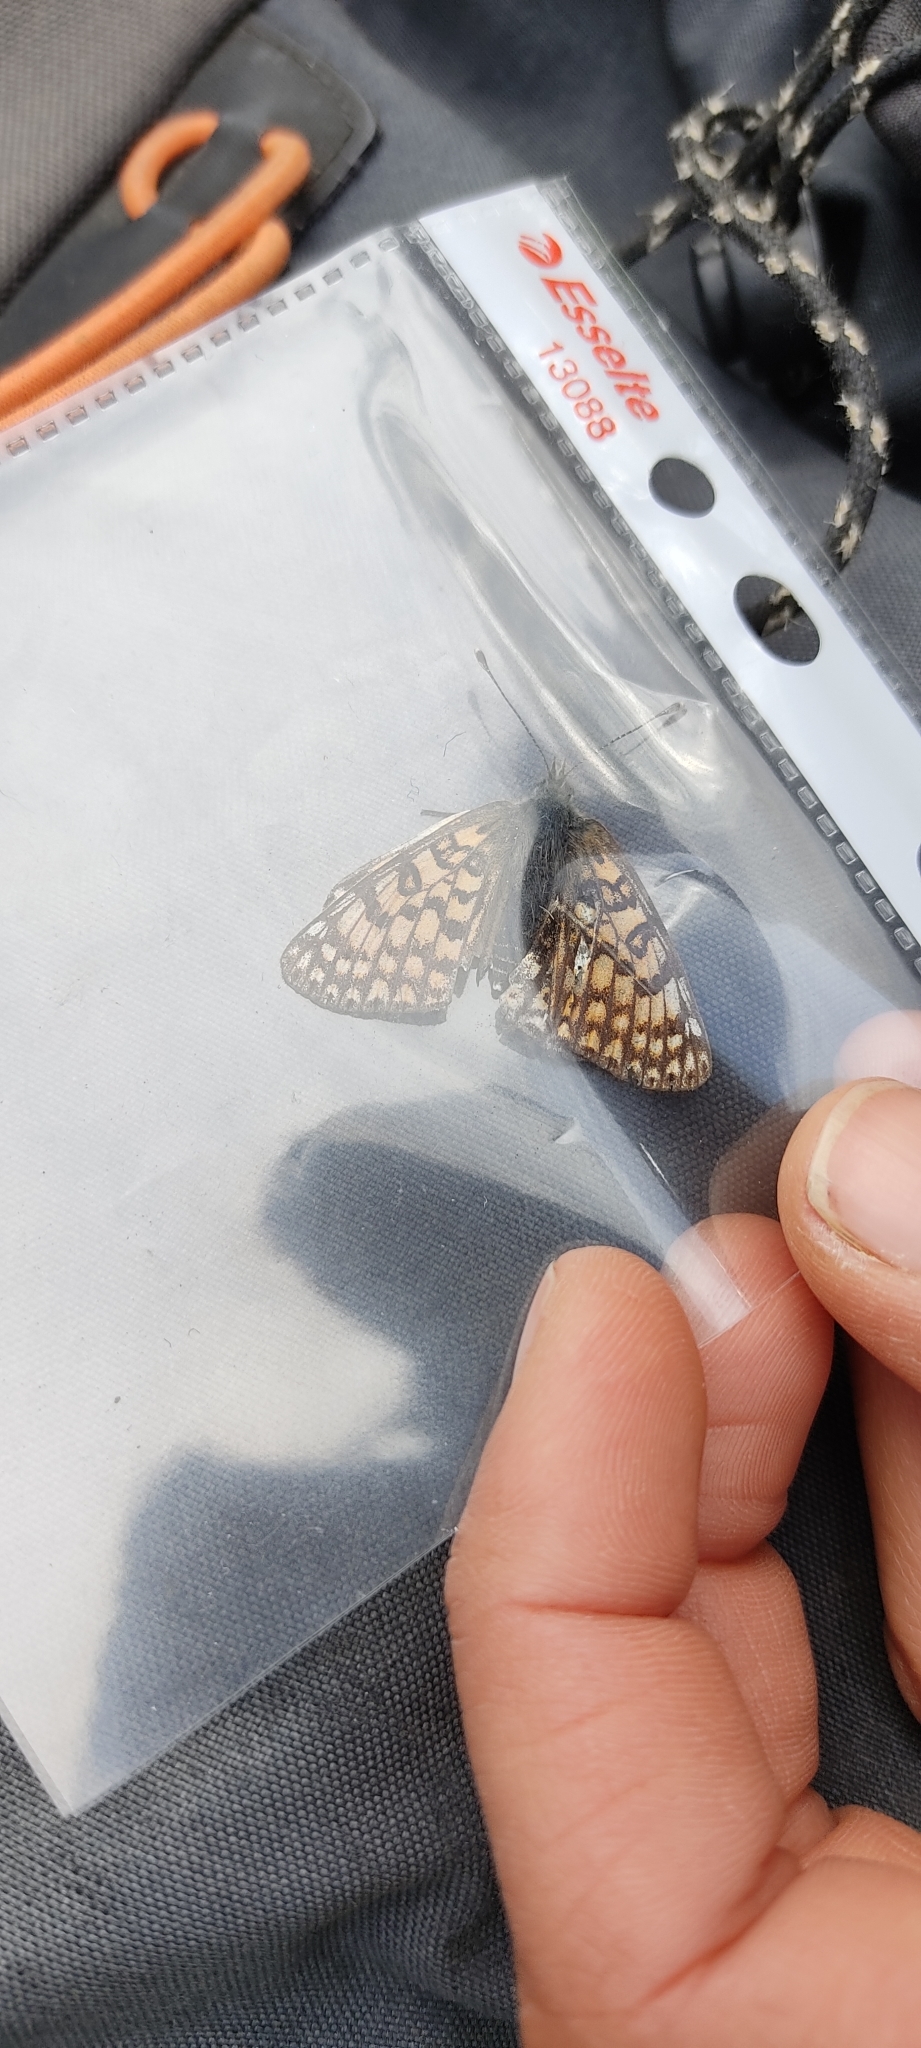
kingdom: Animalia
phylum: Arthropoda
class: Insecta
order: Lepidoptera
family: Nymphalidae
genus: Melitaea
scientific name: Melitaea cinxia
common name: Glanville fritillary
